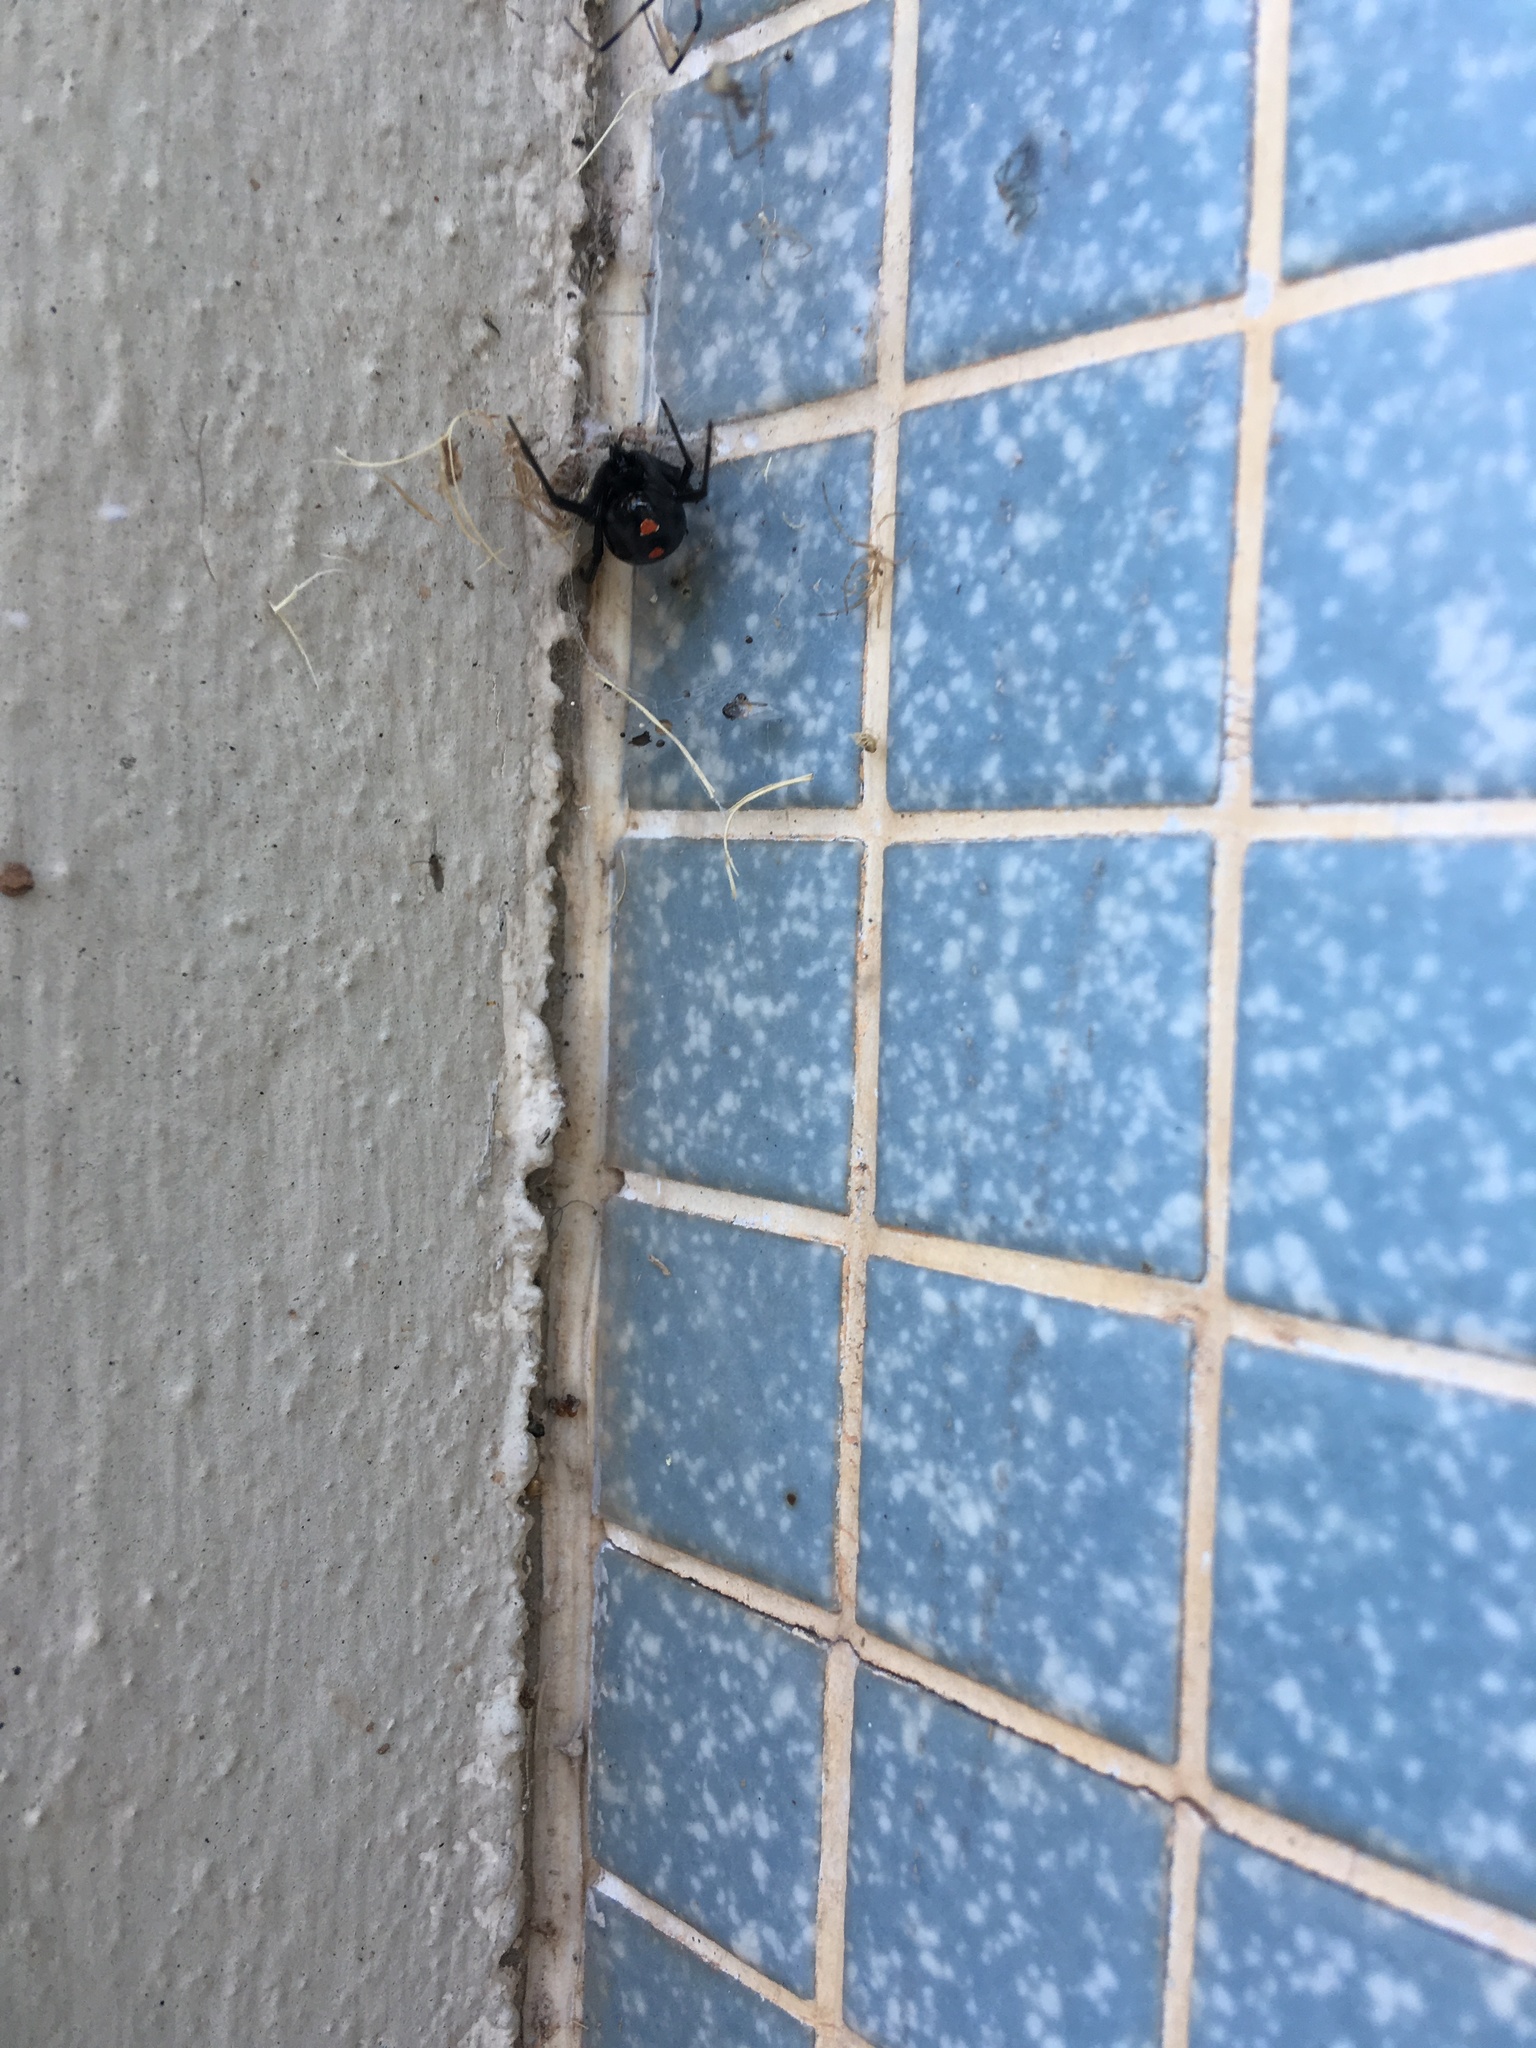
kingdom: Animalia
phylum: Arthropoda
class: Arachnida
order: Araneae
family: Theridiidae
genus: Latrodectus
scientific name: Latrodectus mactans
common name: Cobweb spiders
